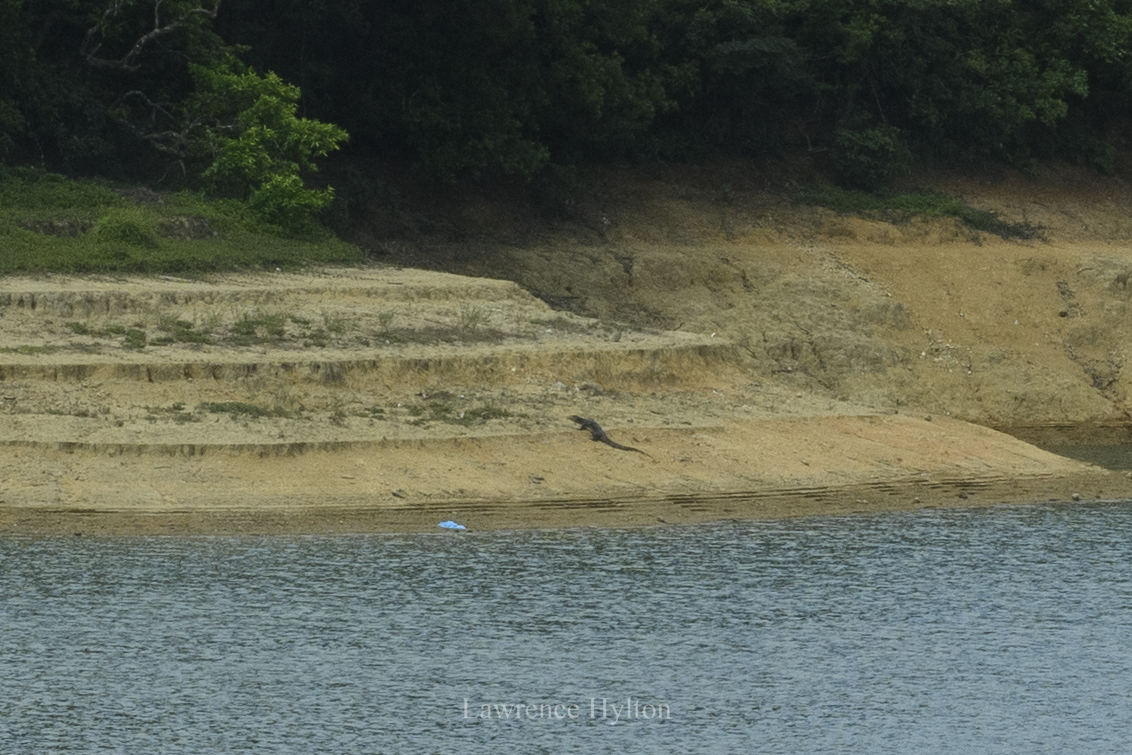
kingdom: Animalia
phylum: Chordata
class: Squamata
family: Varanidae
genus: Varanus
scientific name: Varanus salvator
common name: Common water monitor
